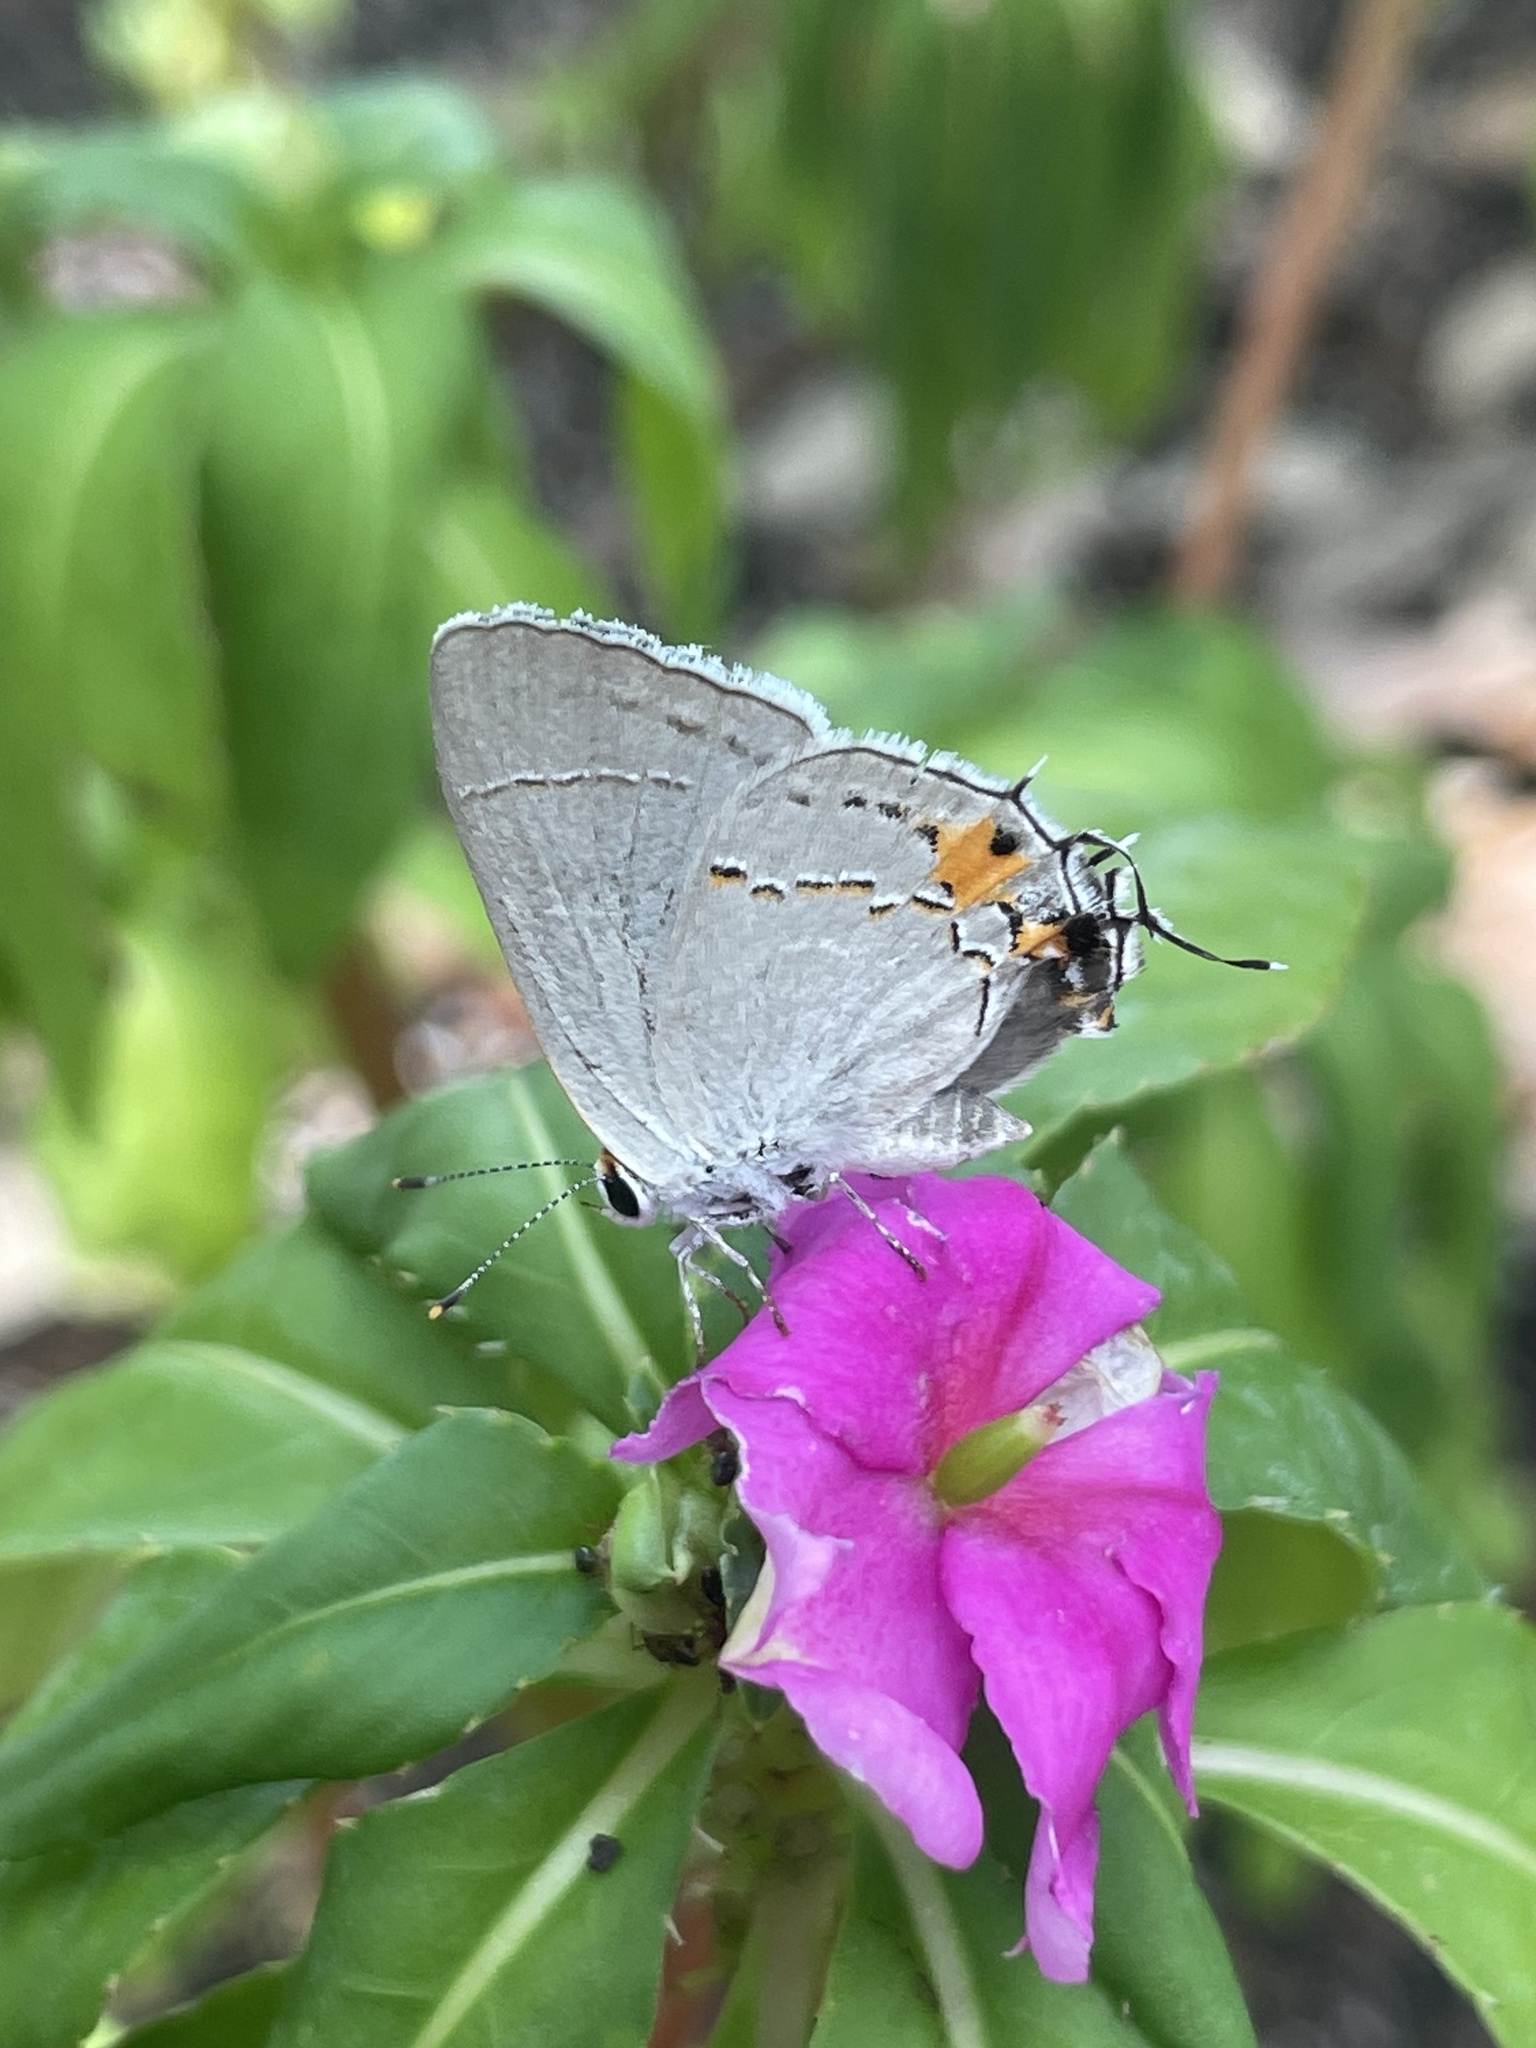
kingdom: Animalia
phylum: Arthropoda
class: Insecta
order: Lepidoptera
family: Lycaenidae
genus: Strymon
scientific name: Strymon melinus
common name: Gray hairstreak
